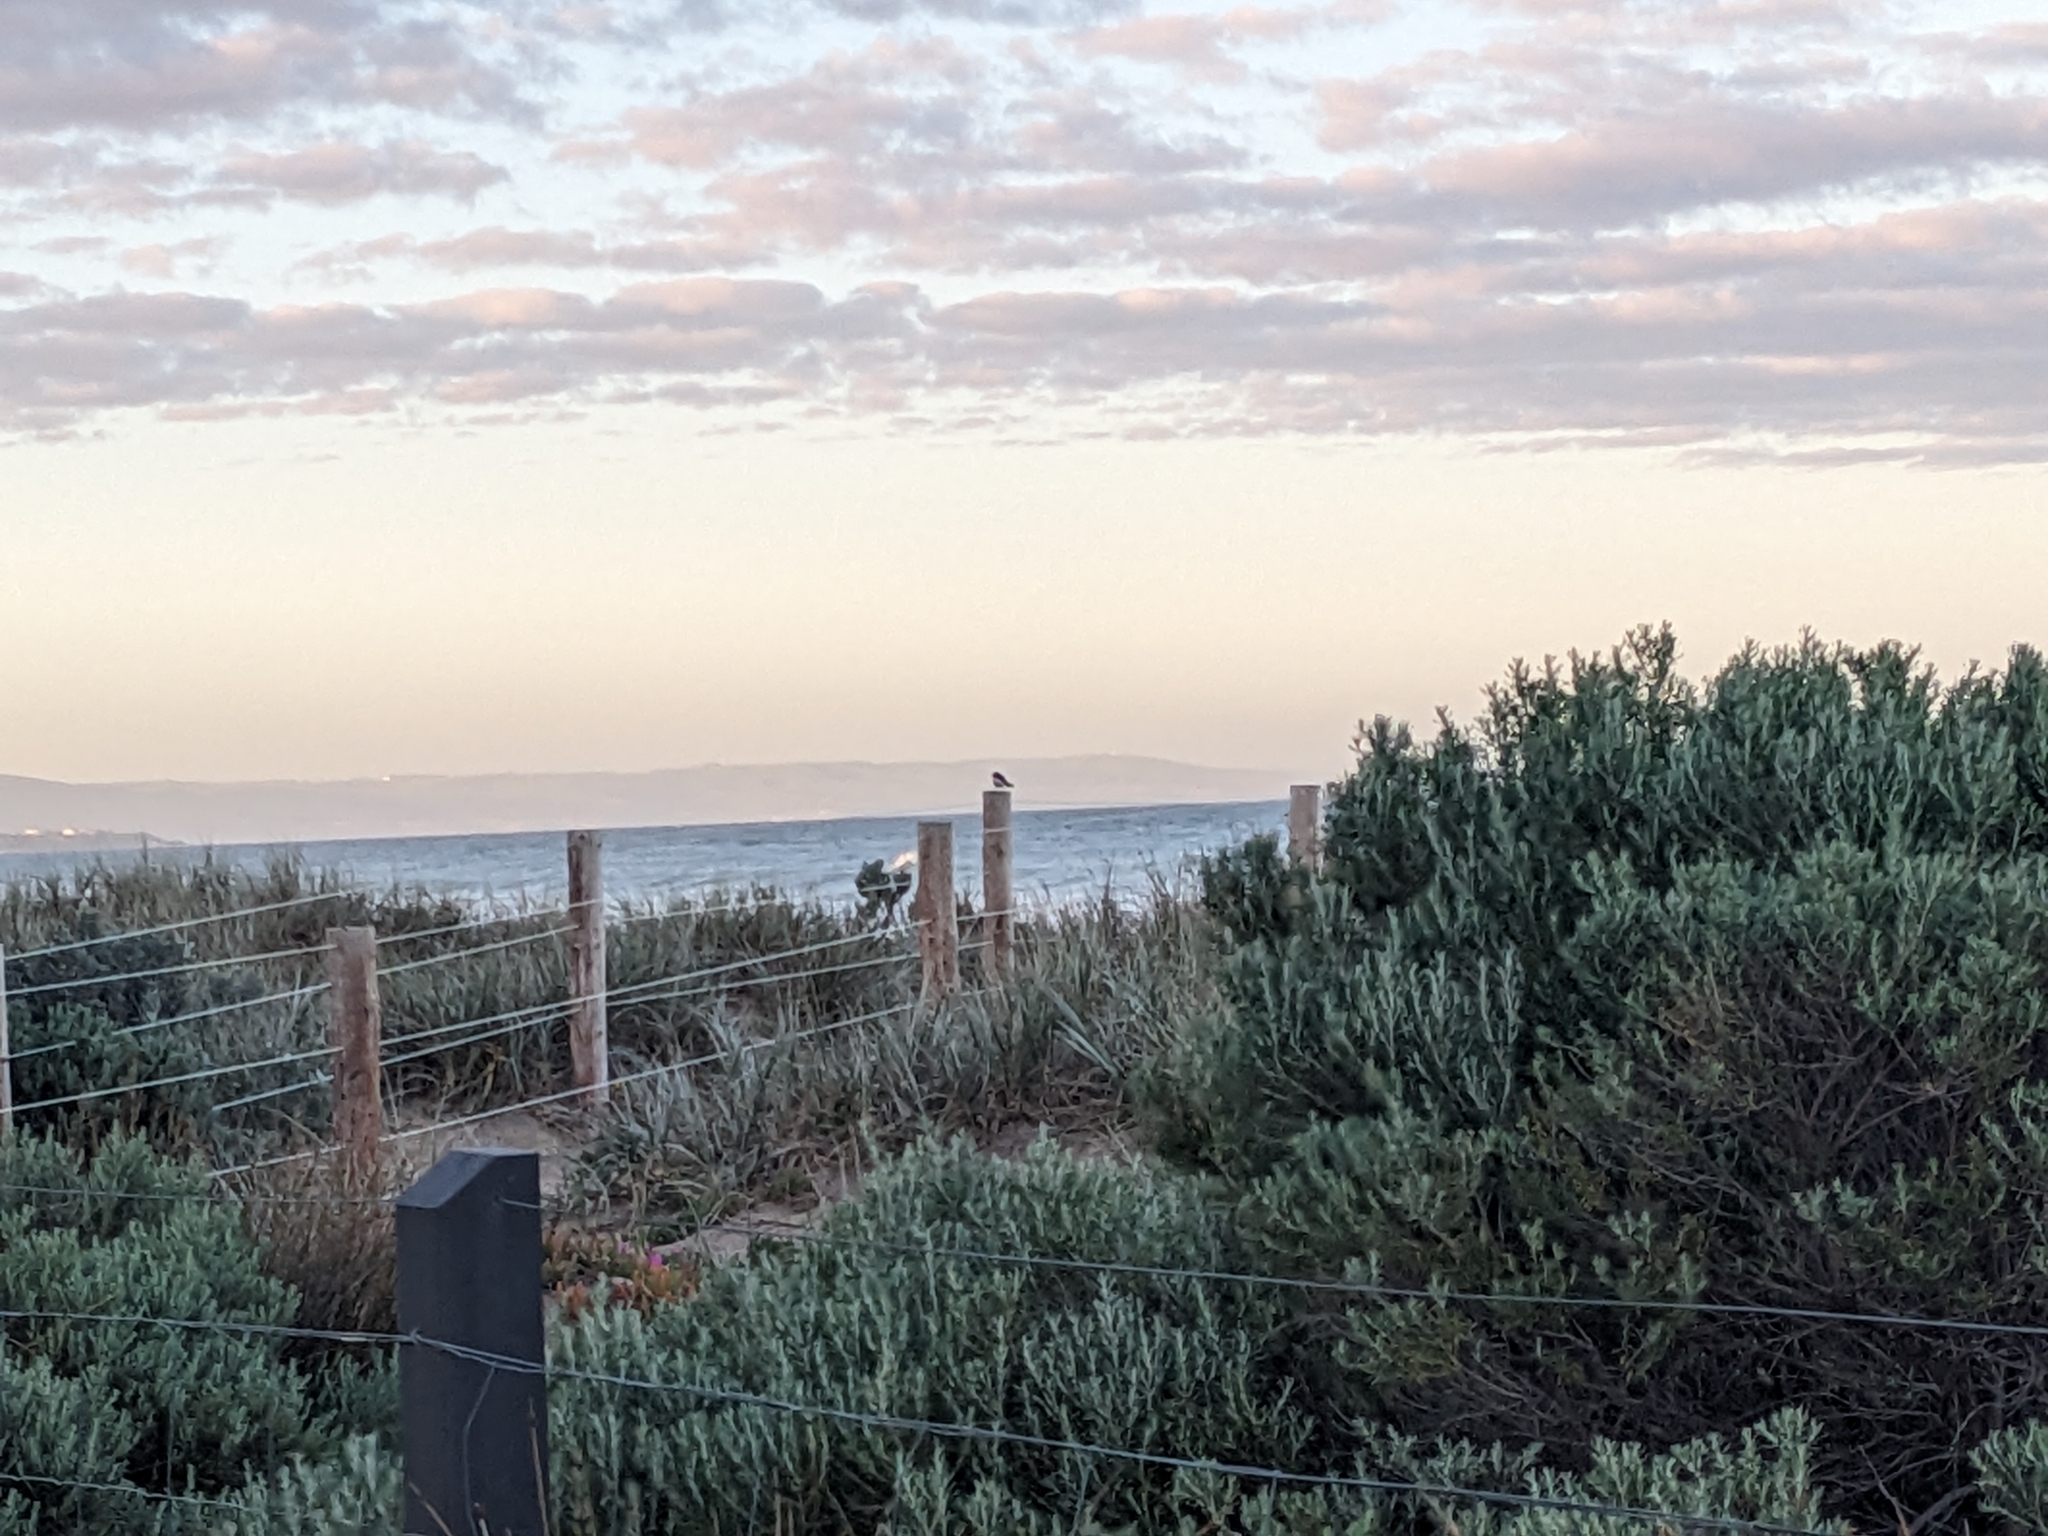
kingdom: Animalia
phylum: Chordata
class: Aves
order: Passeriformes
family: Rhipiduridae
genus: Rhipidura
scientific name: Rhipidura leucophrys
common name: Willie wagtail
